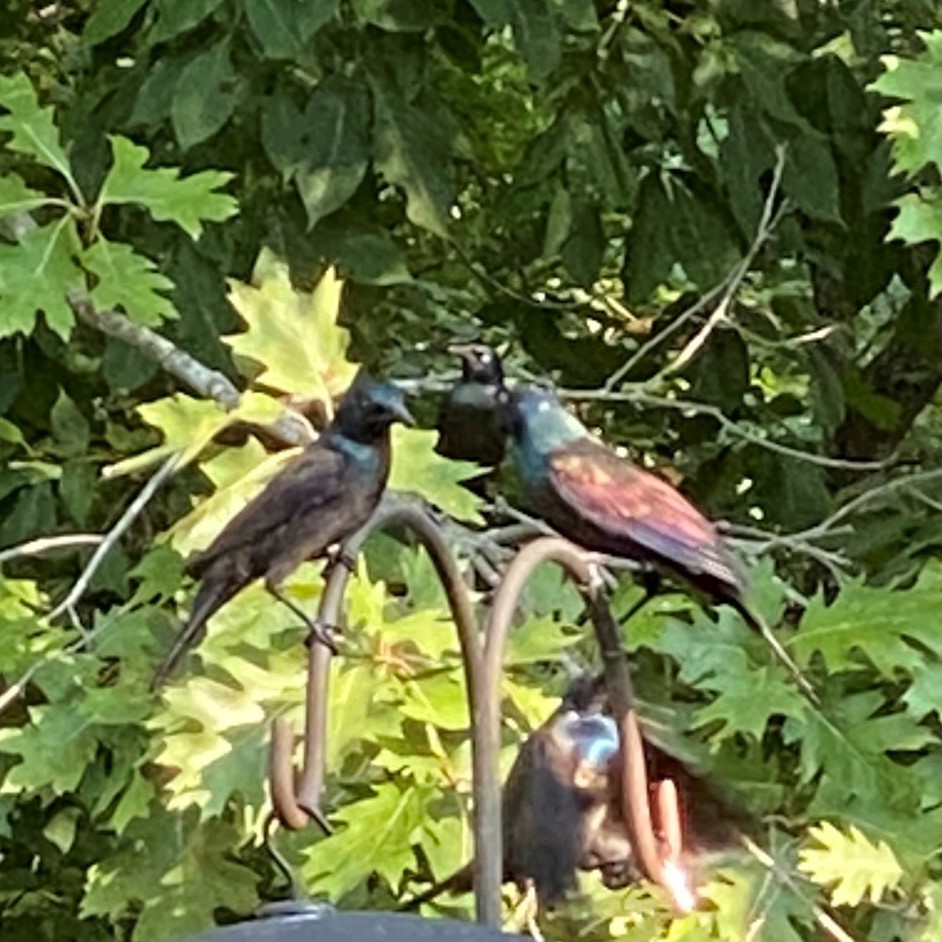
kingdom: Animalia
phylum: Chordata
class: Aves
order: Passeriformes
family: Icteridae
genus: Quiscalus
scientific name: Quiscalus quiscula
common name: Common grackle
